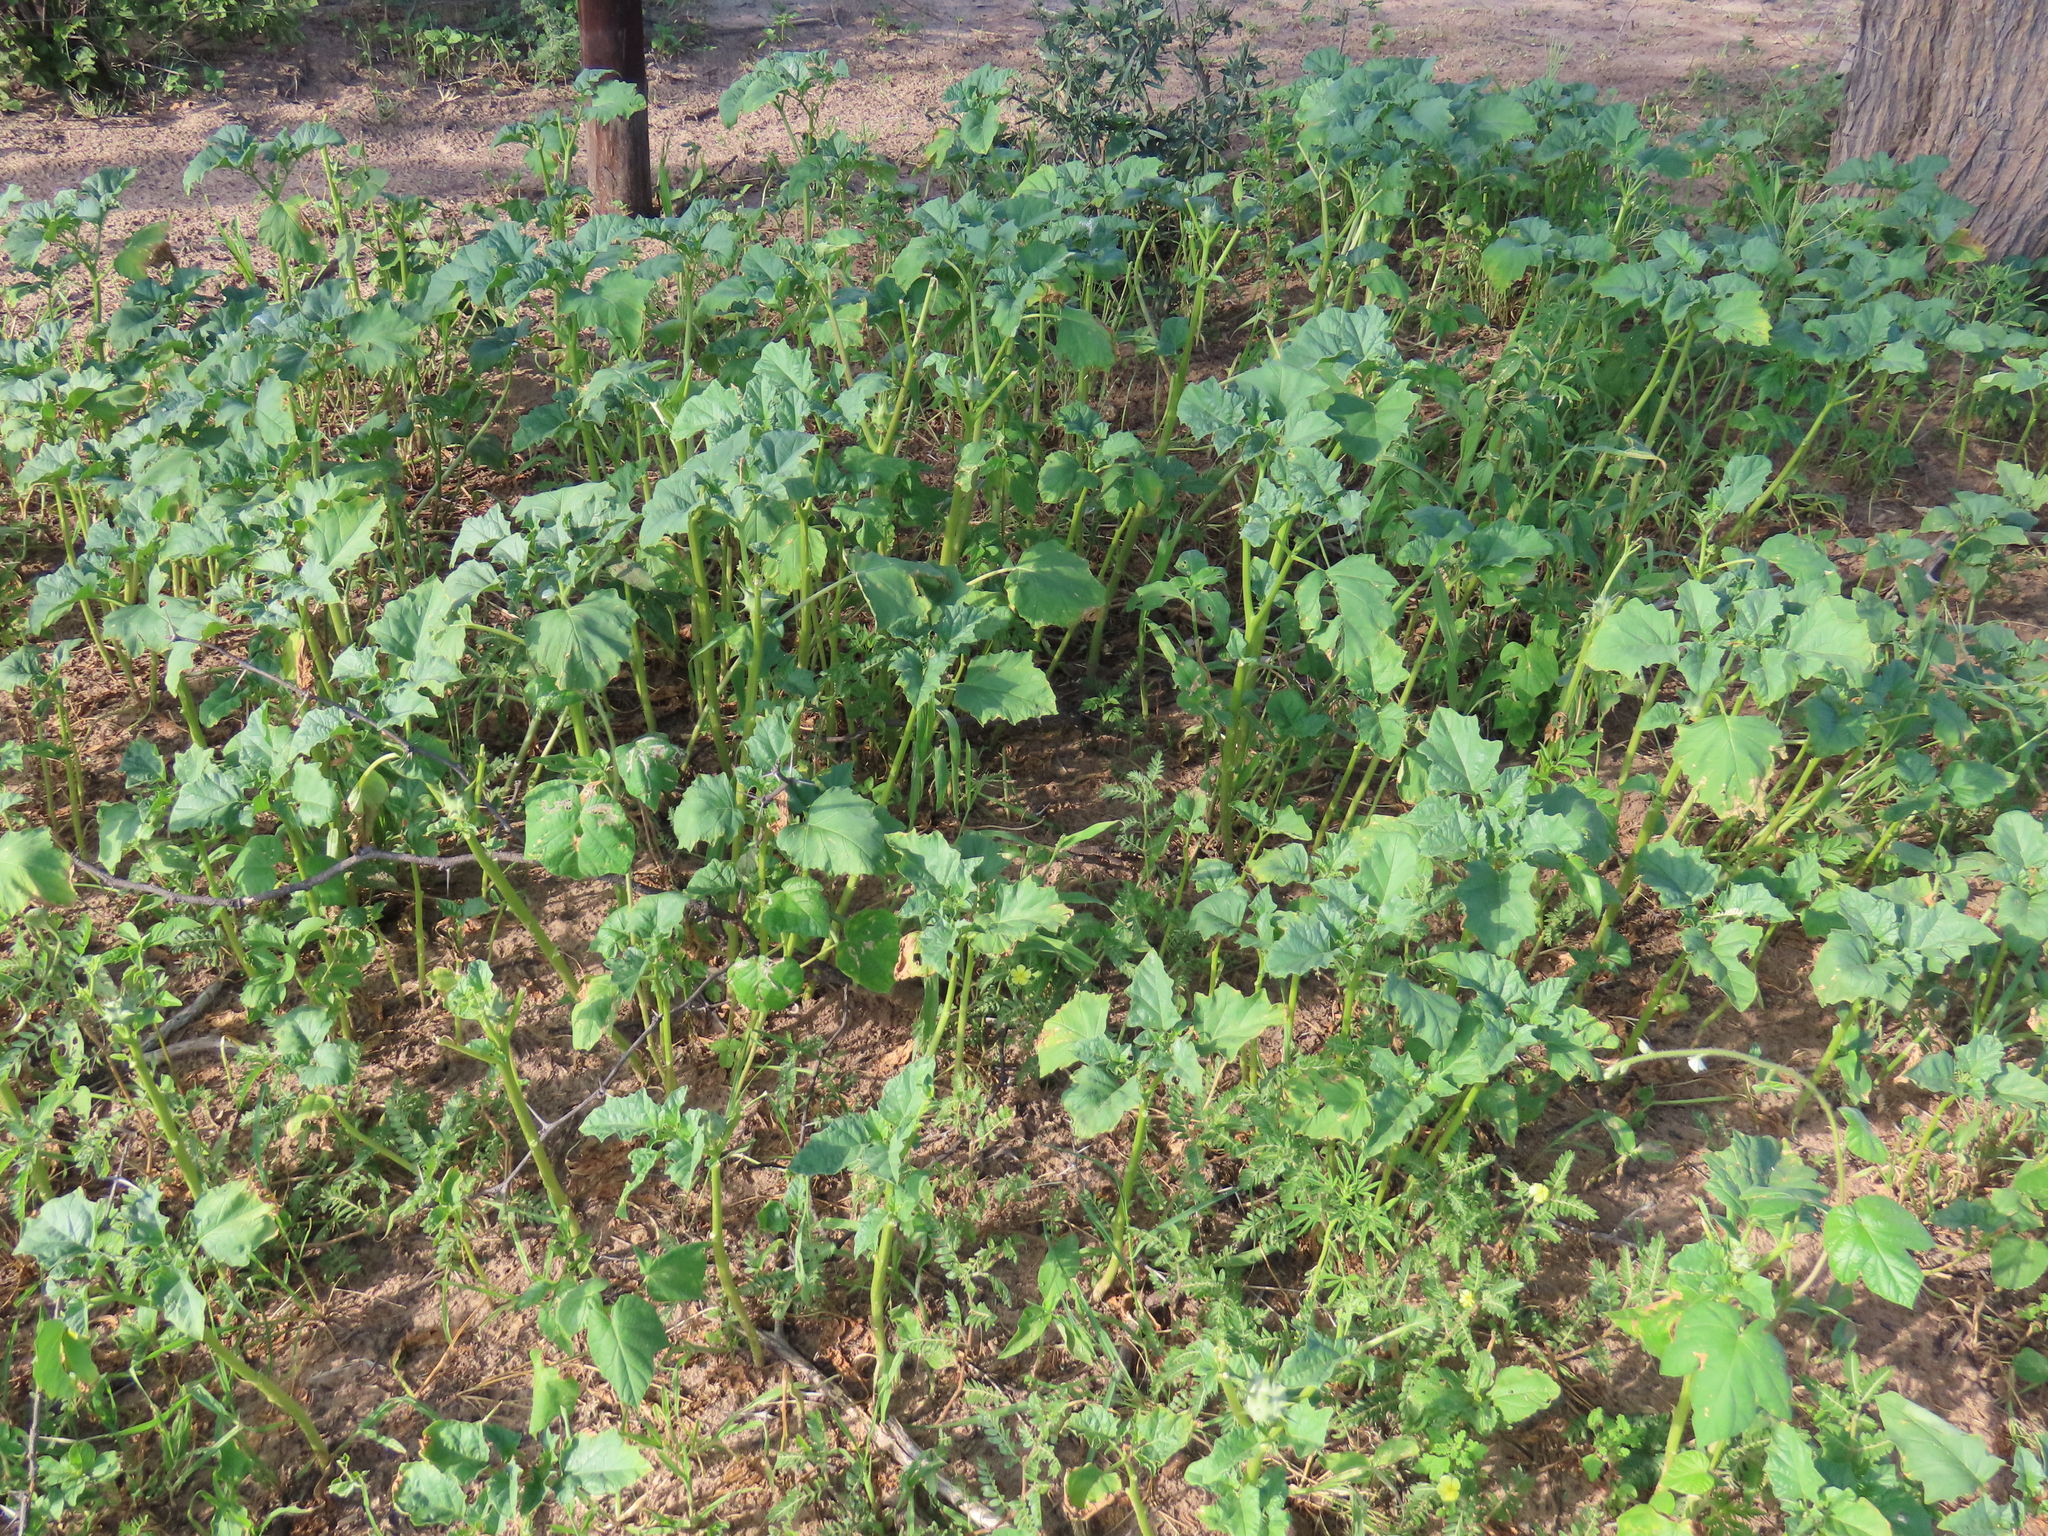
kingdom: Plantae
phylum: Tracheophyta
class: Magnoliopsida
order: Solanales
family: Solanaceae
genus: Datura
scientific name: Datura ferox
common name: Angel's-trumpets
